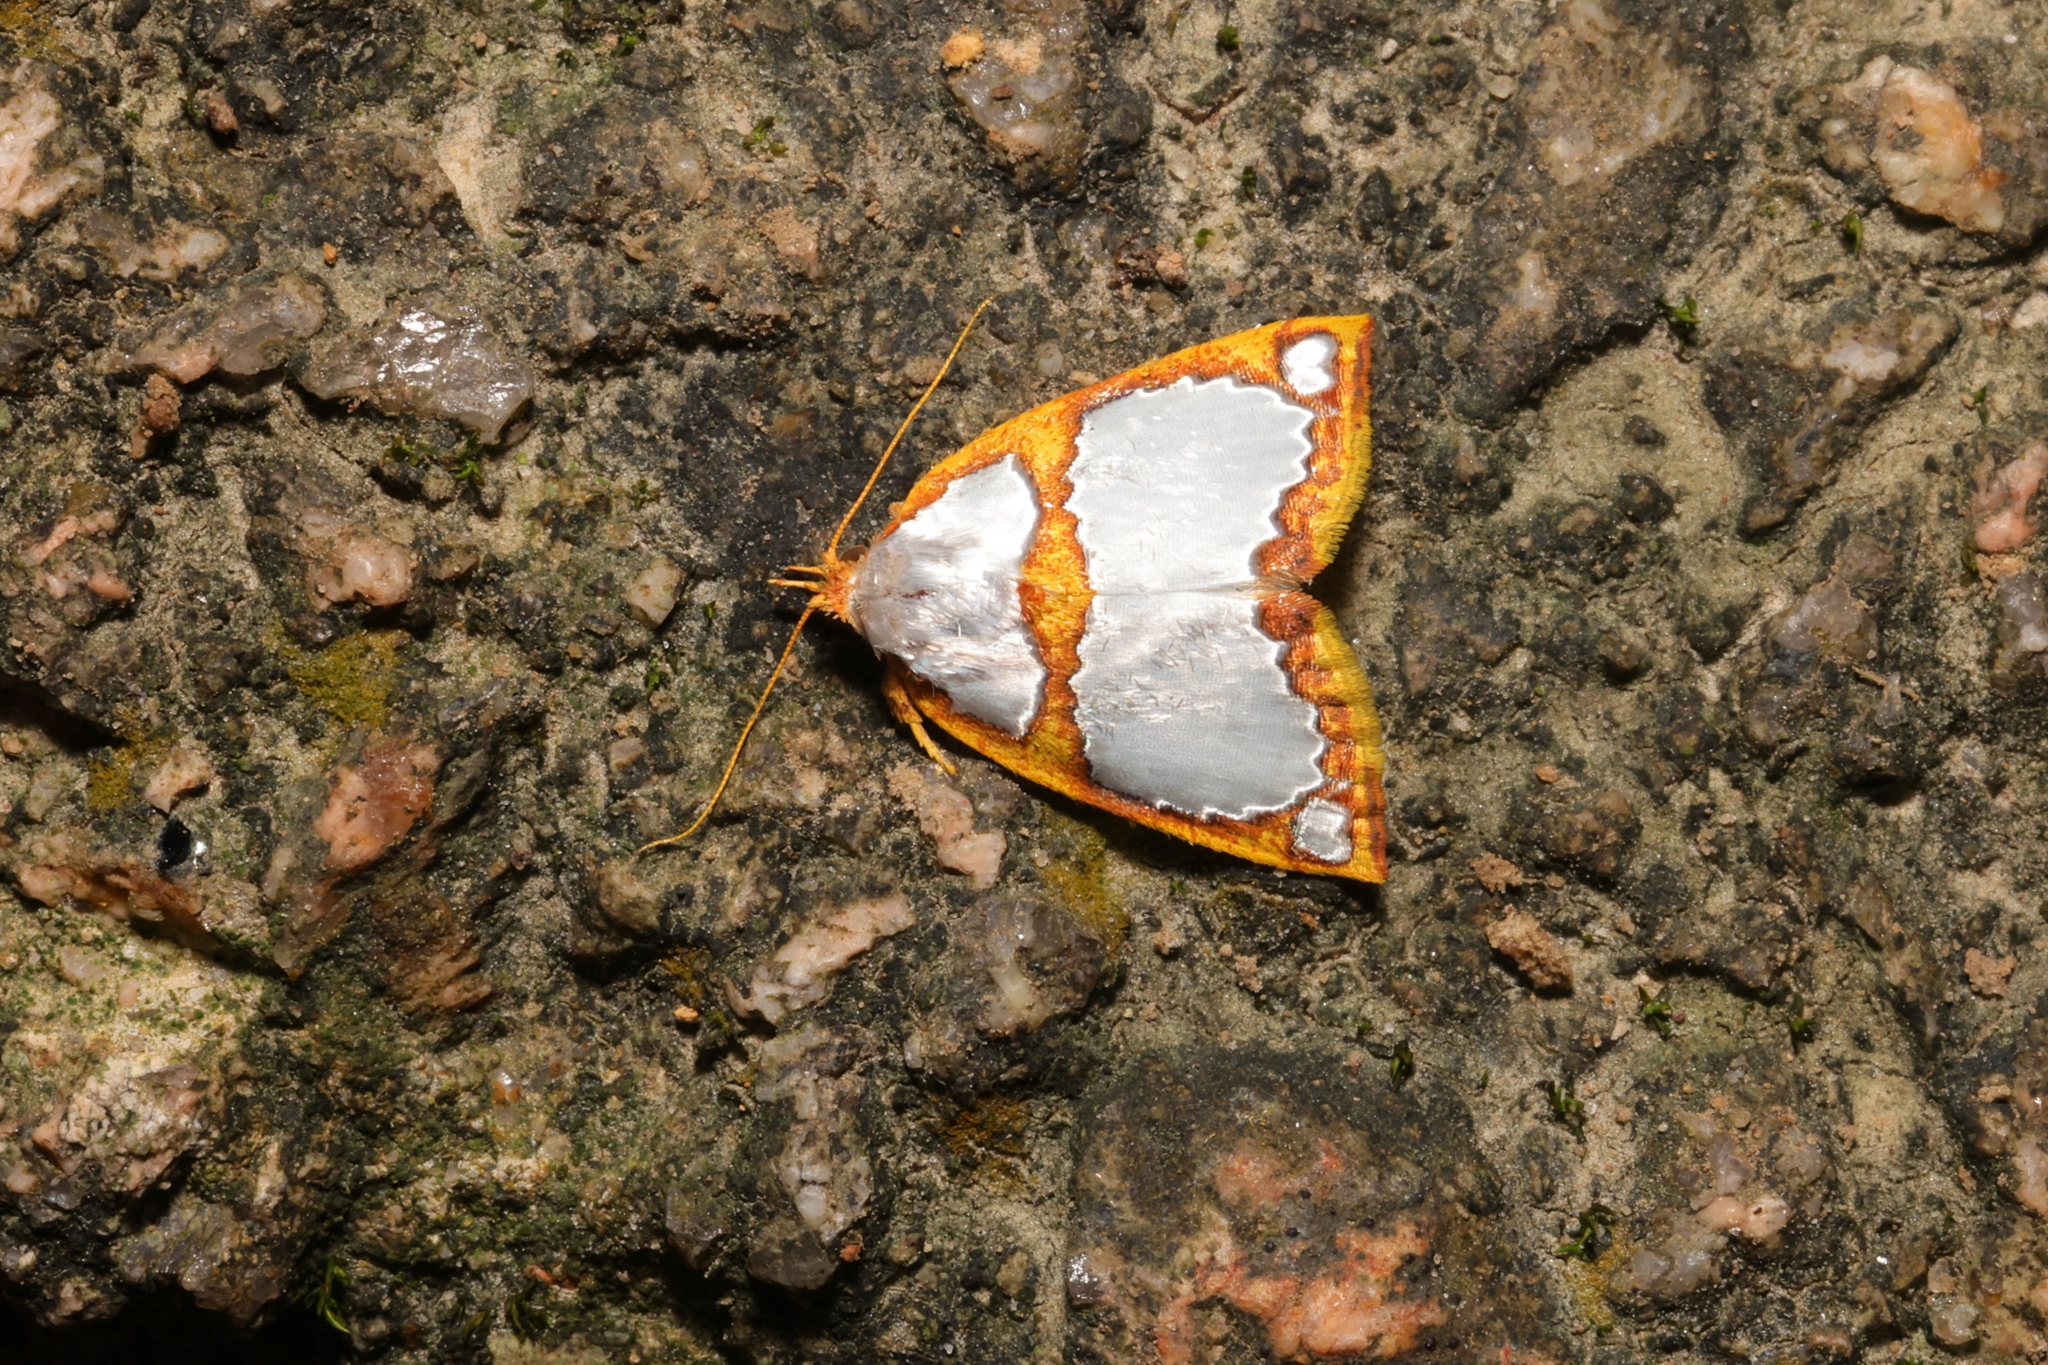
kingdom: Animalia
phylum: Arthropoda
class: Insecta
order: Lepidoptera
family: Nolidae
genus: Titulcia
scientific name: Titulcia confictella
